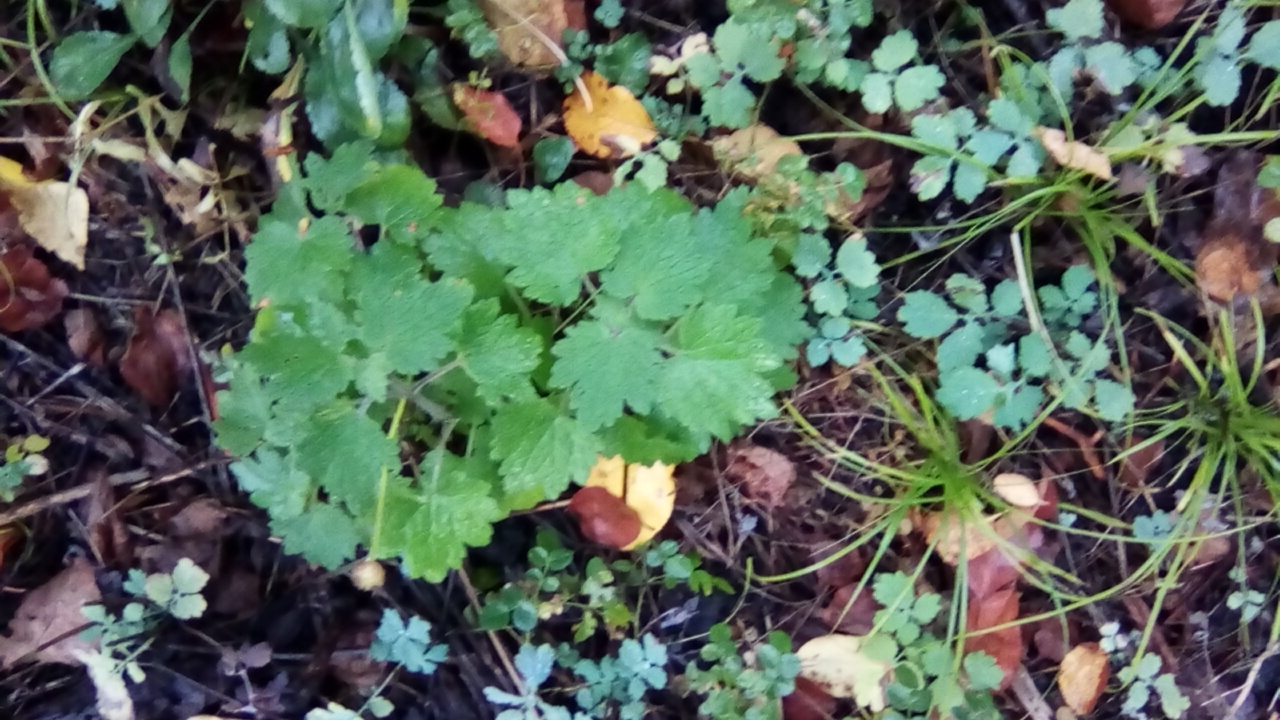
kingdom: Plantae
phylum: Tracheophyta
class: Magnoliopsida
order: Lamiales
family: Lamiaceae
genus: Leonurus
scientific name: Leonurus quinquelobatus
